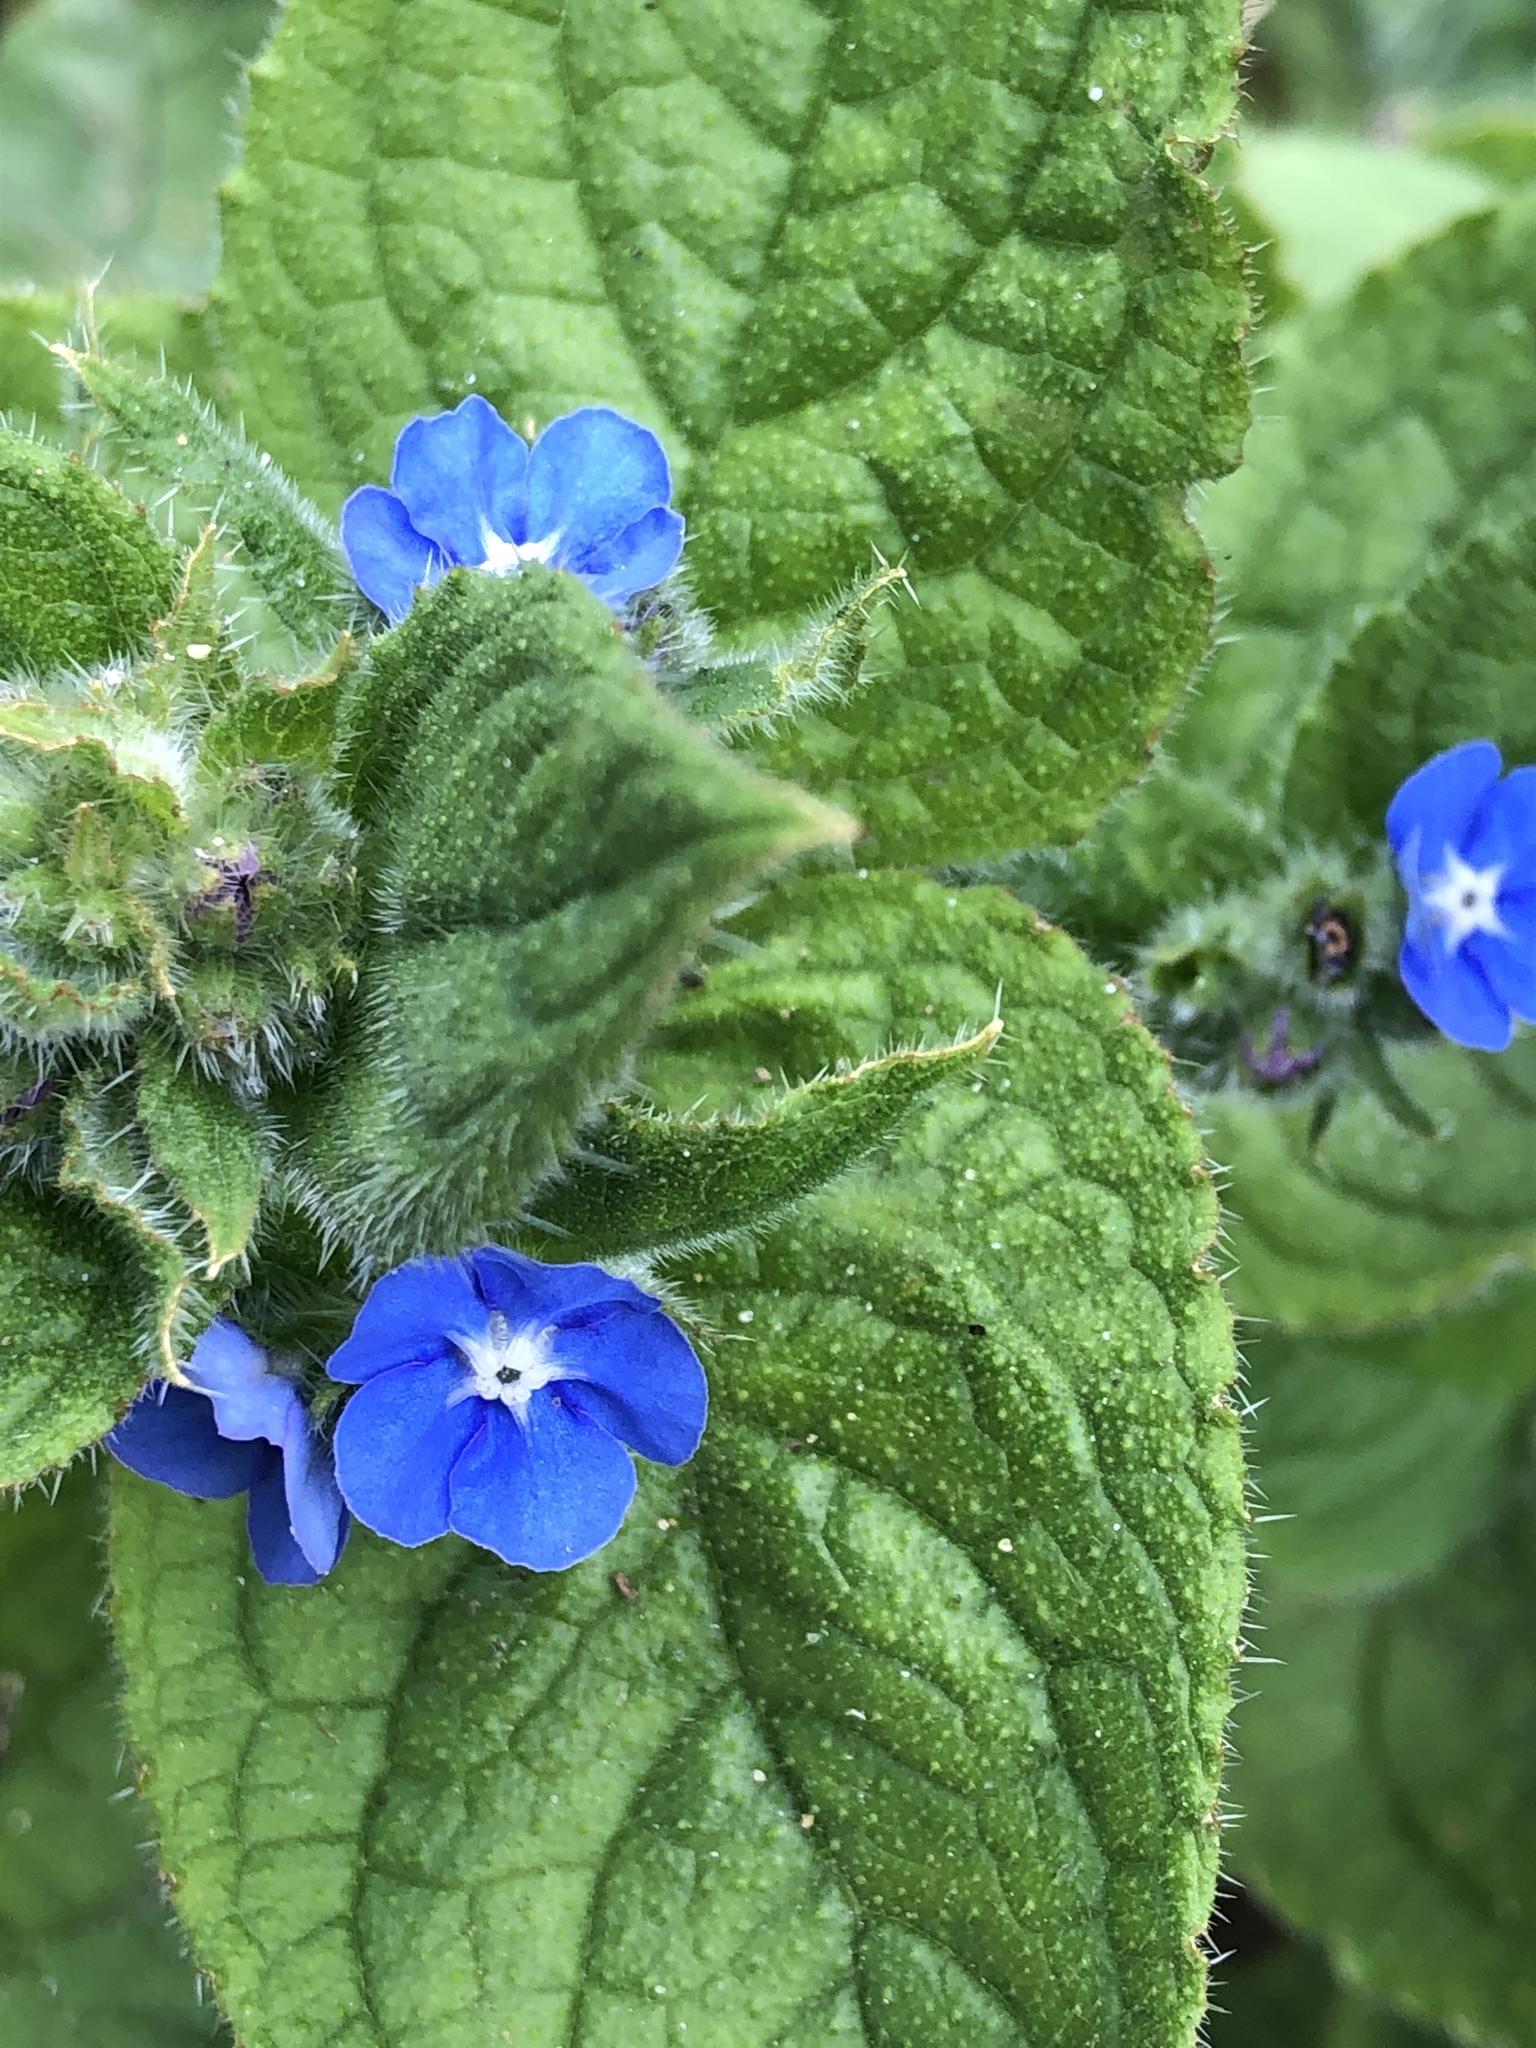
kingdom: Plantae
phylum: Tracheophyta
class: Magnoliopsida
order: Boraginales
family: Boraginaceae
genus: Pentaglottis
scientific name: Pentaglottis sempervirens
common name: Green alkanet
